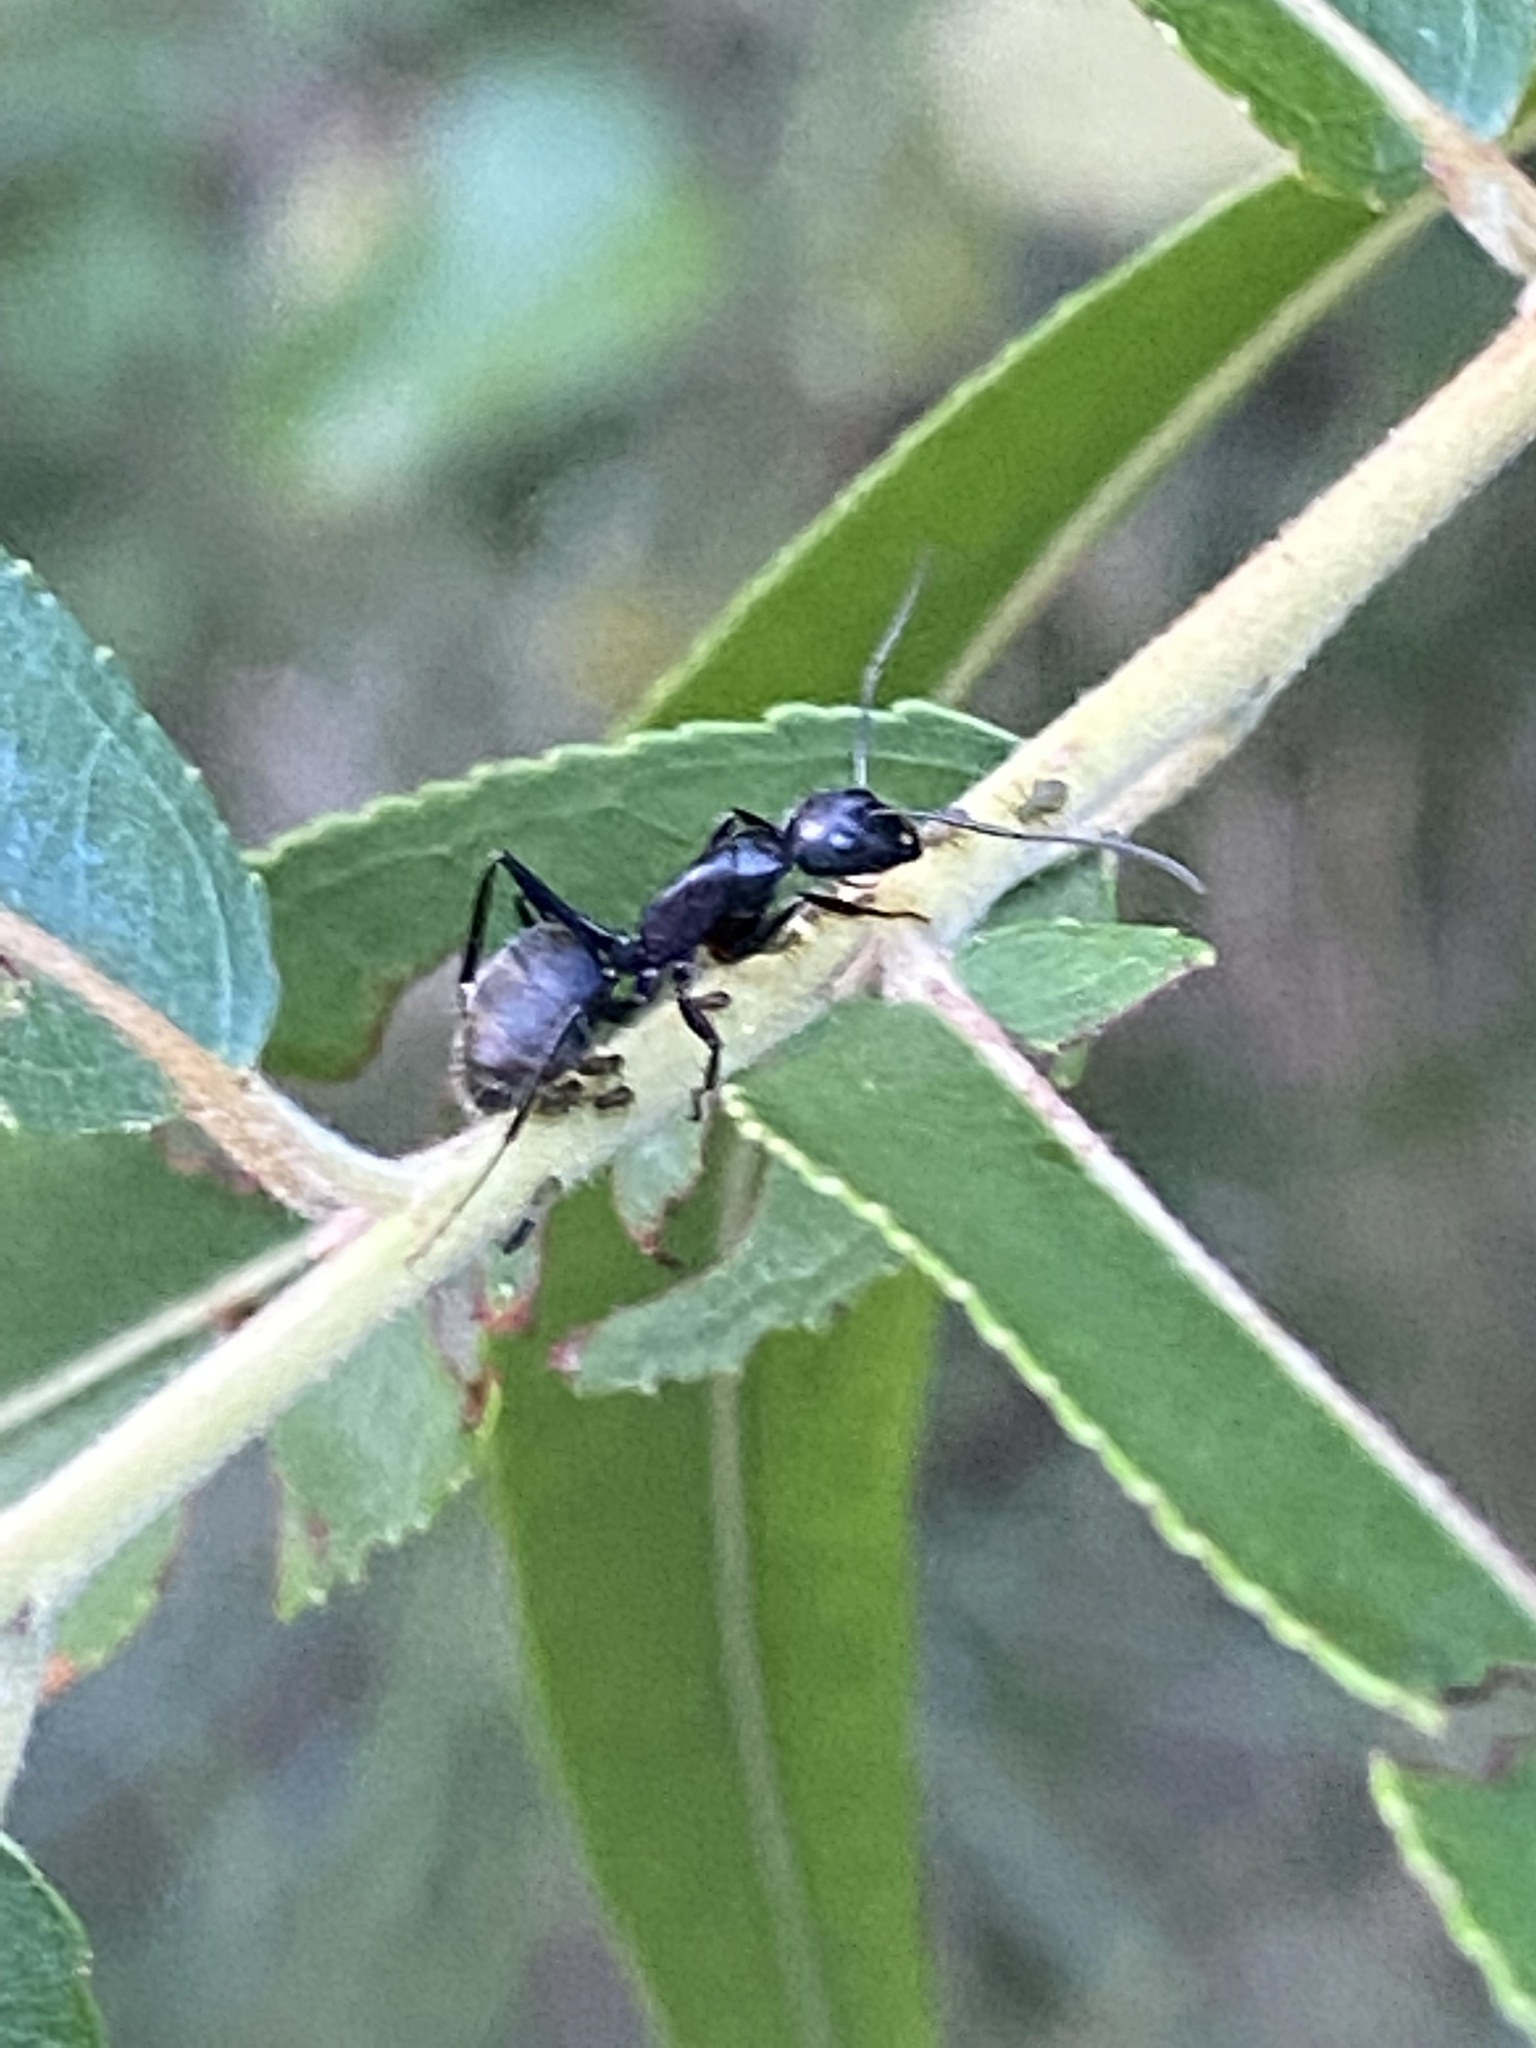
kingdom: Animalia
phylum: Arthropoda
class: Insecta
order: Hymenoptera
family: Formicidae
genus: Camponotus
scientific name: Camponotus pennsylvanicus
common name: Black carpenter ant
